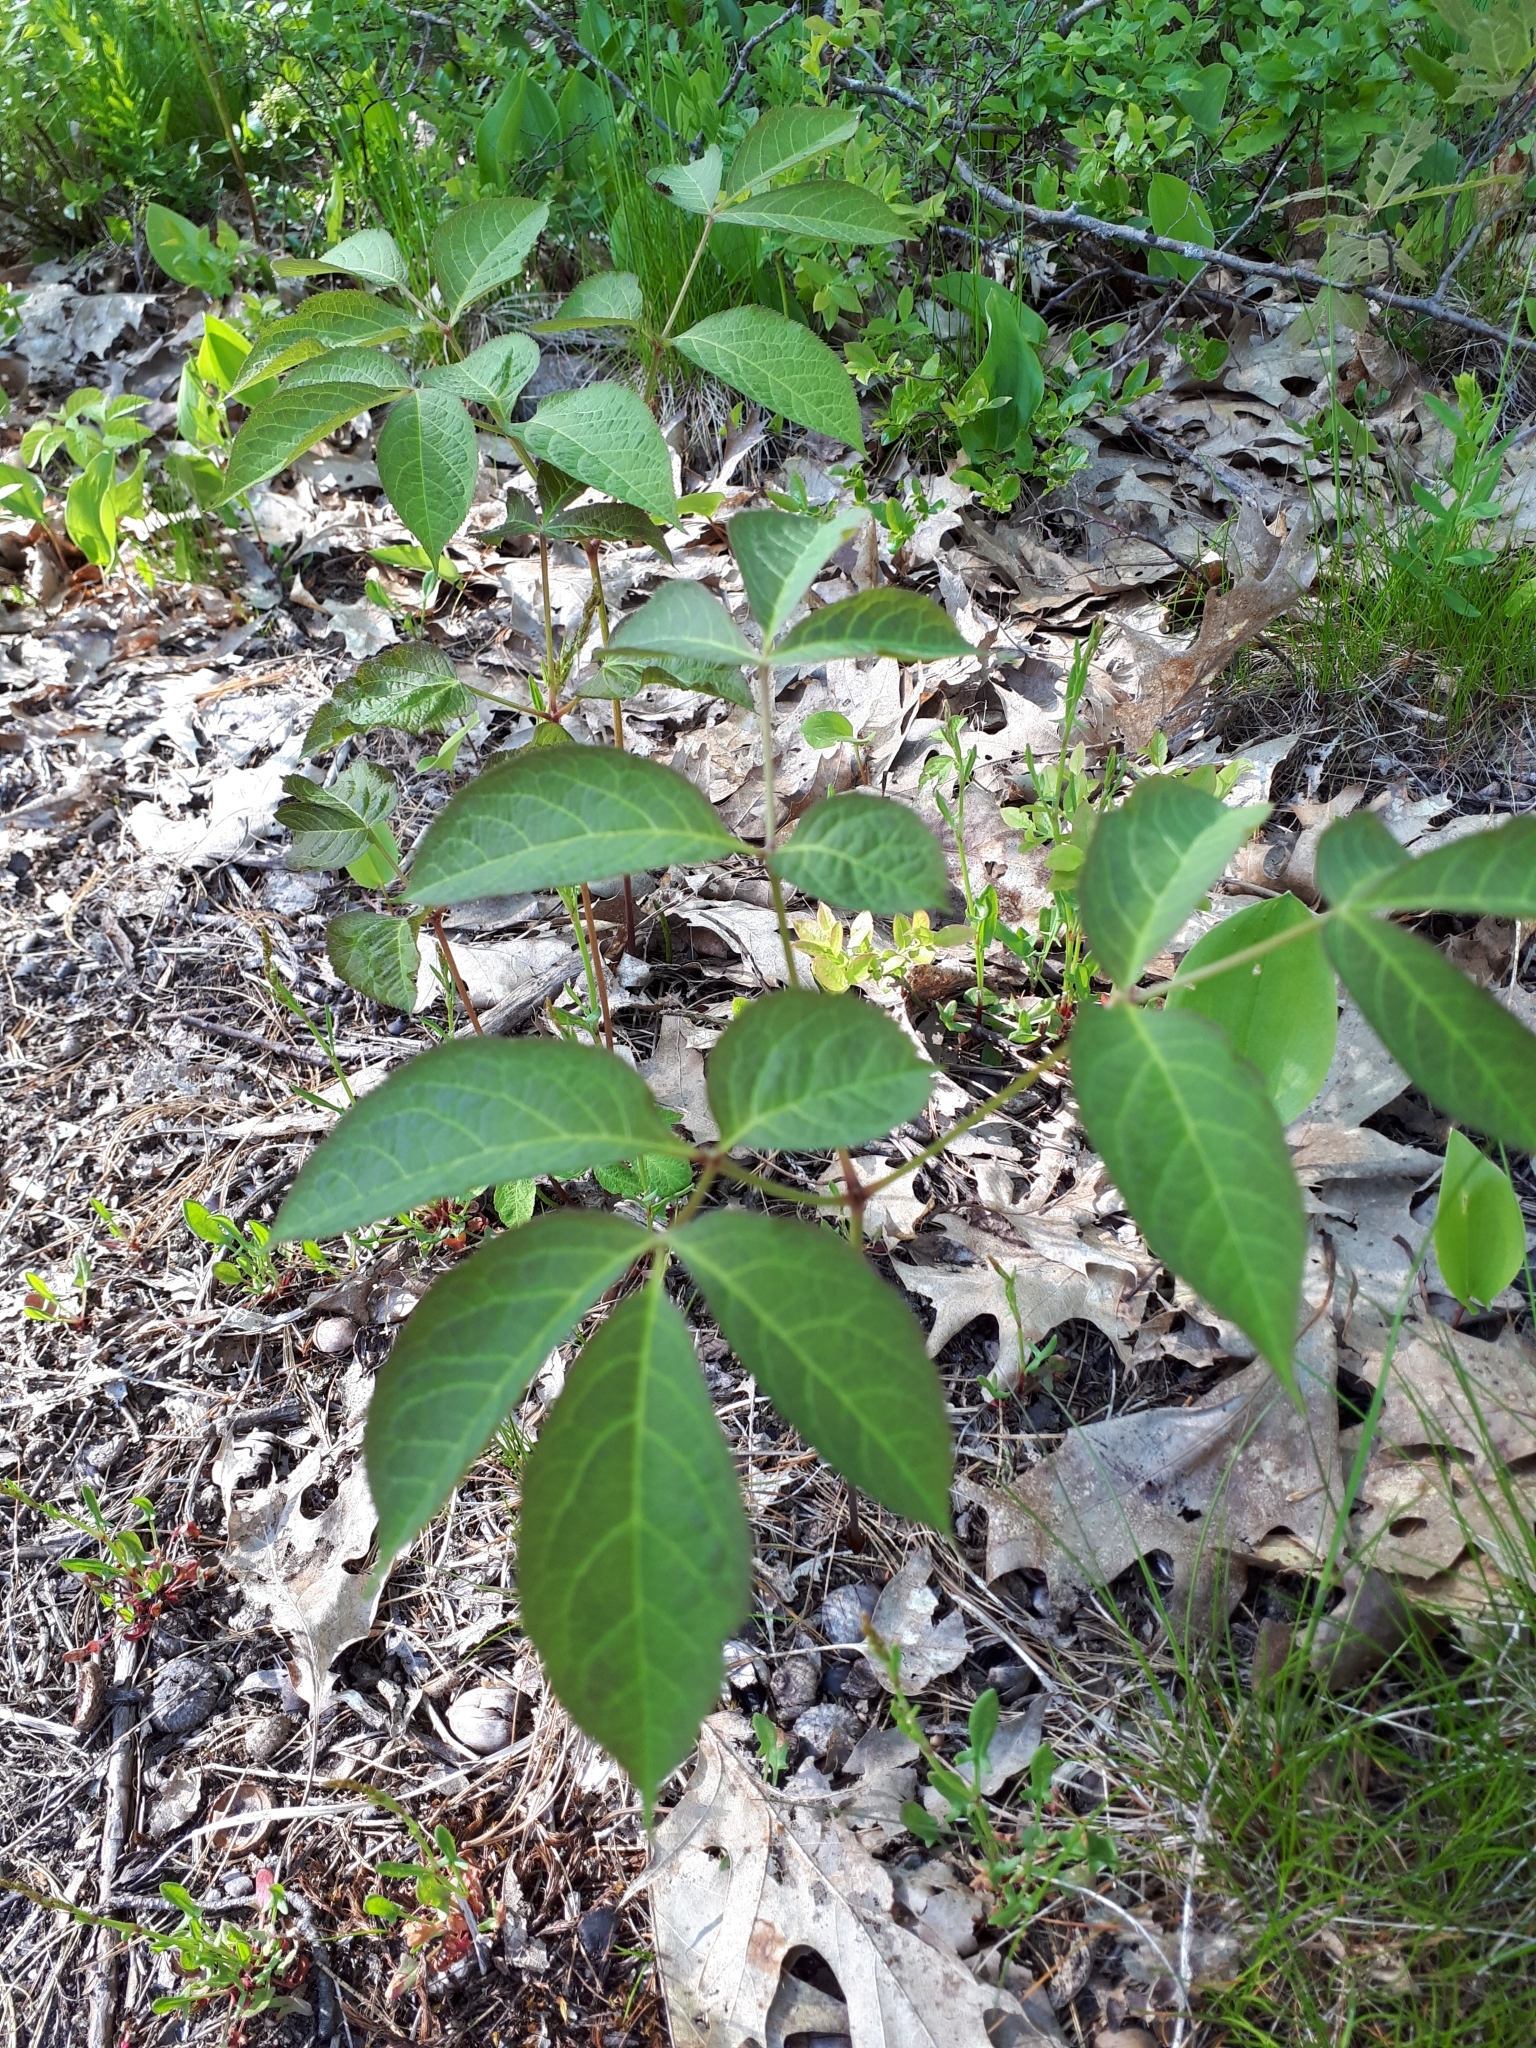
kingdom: Plantae
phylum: Tracheophyta
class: Magnoliopsida
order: Apiales
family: Araliaceae
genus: Aralia
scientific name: Aralia nudicaulis
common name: Wild sarsaparilla
